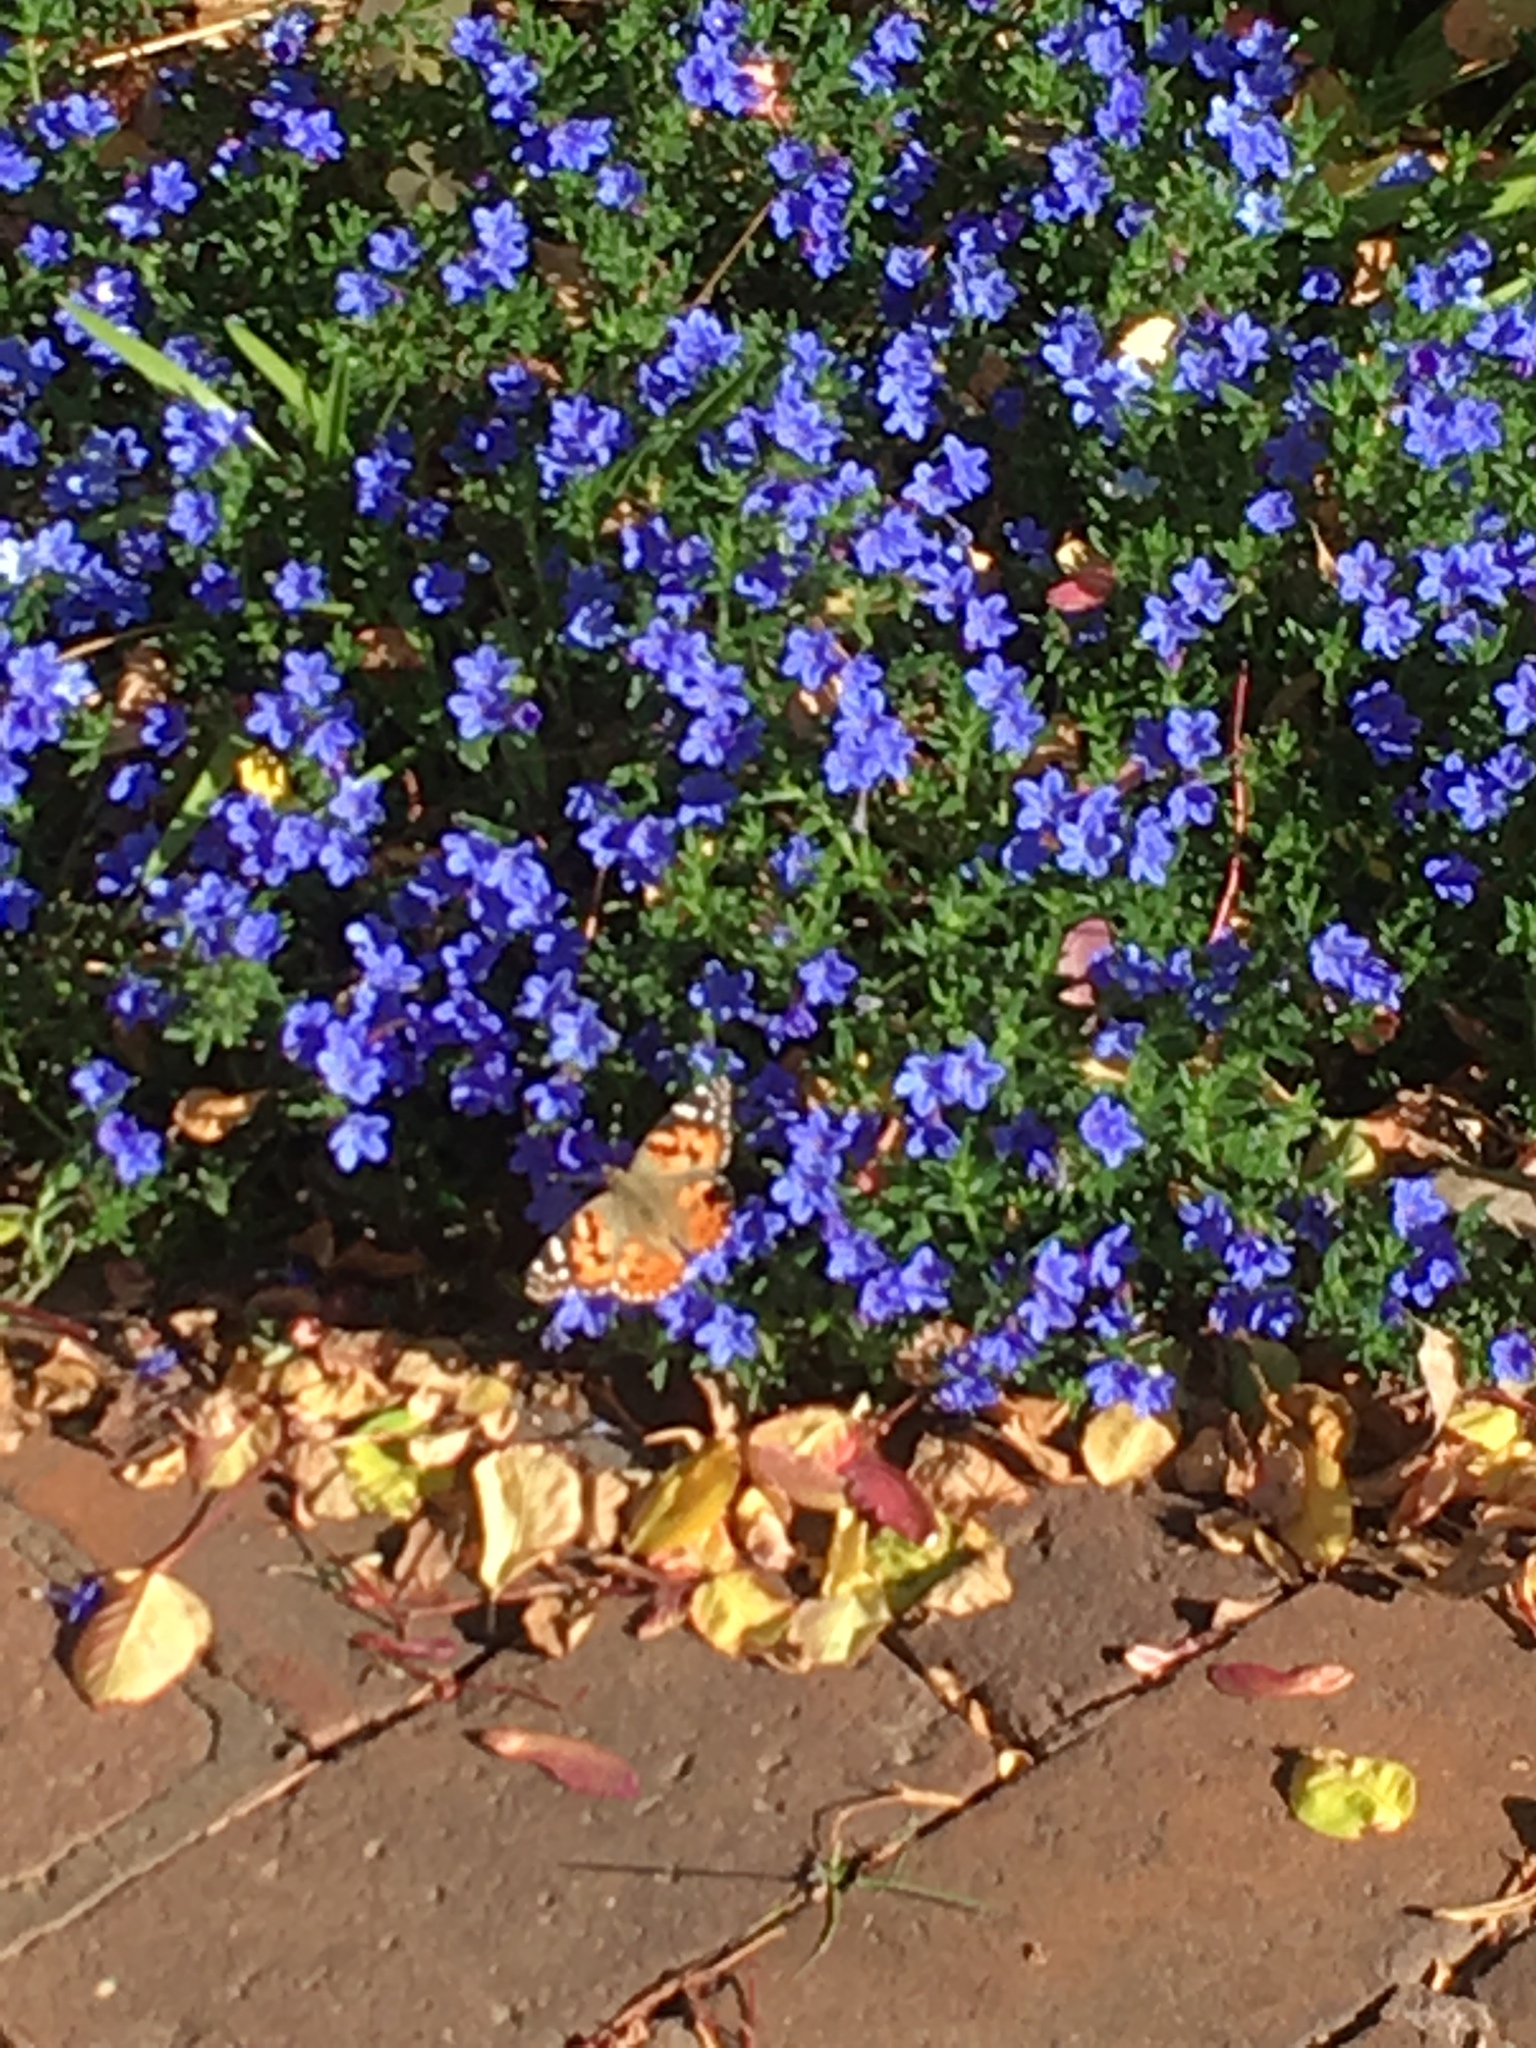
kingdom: Animalia
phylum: Arthropoda
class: Insecta
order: Lepidoptera
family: Nymphalidae
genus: Vanessa
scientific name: Vanessa cardui
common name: Painted lady
